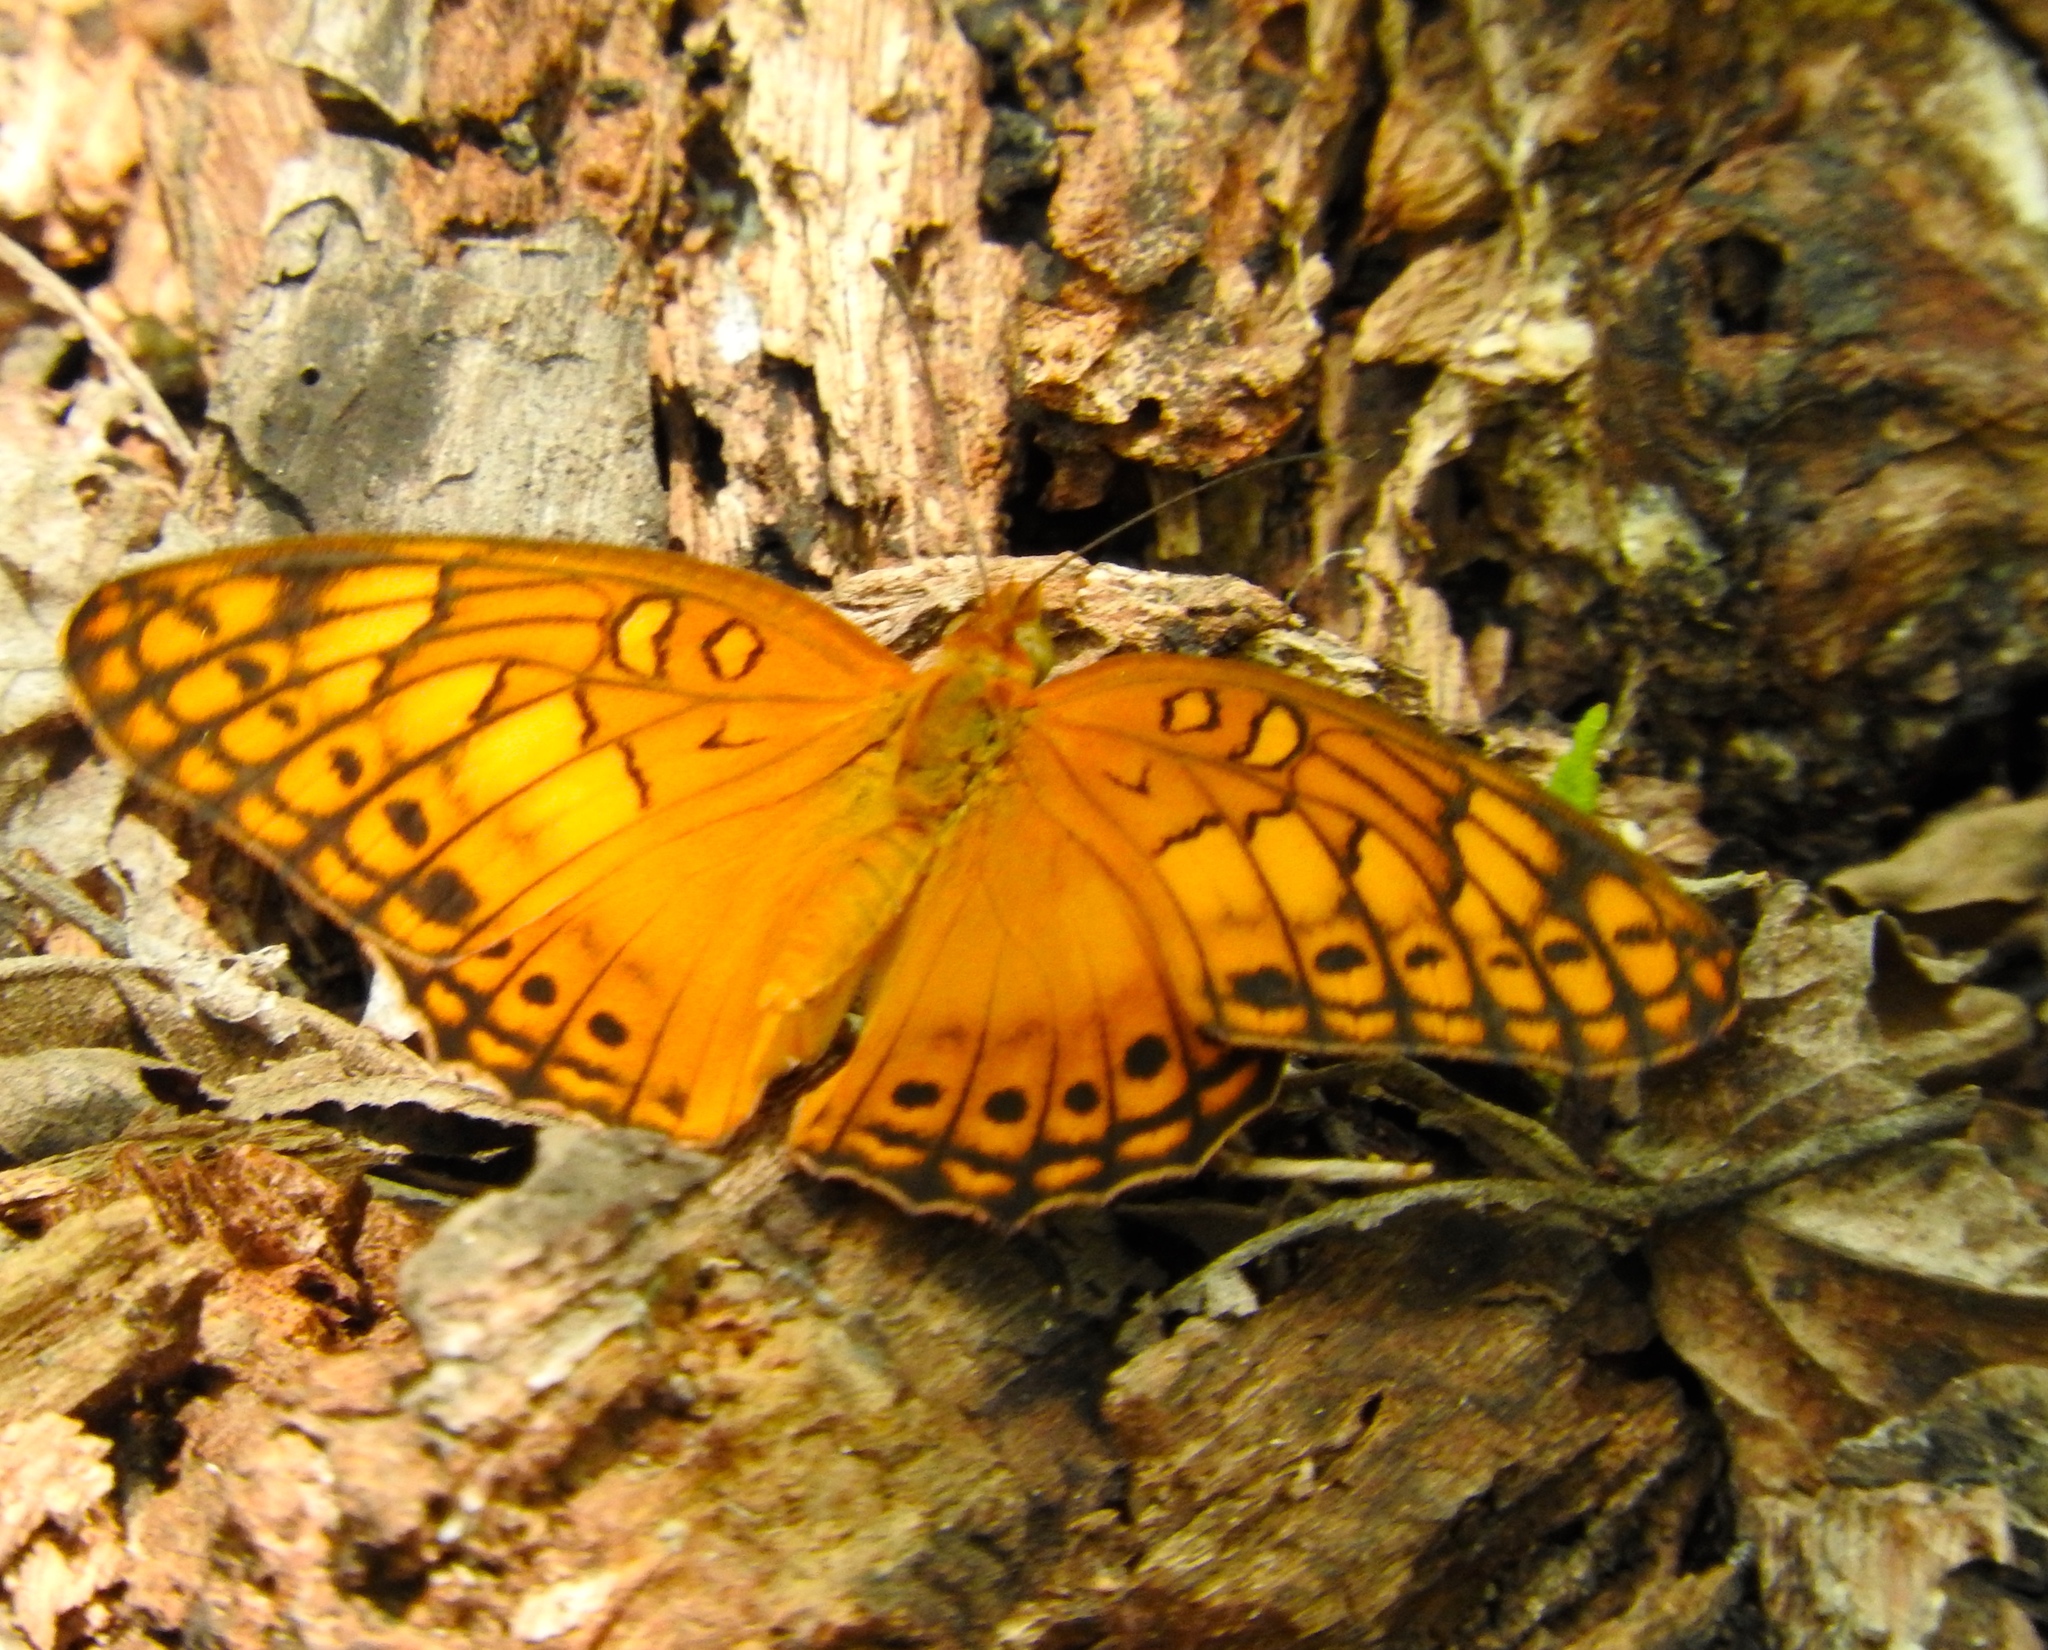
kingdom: Animalia
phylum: Arthropoda
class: Insecta
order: Lepidoptera
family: Nymphalidae
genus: Euptoieta
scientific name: Euptoieta hegesia
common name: Mexican fritillary
